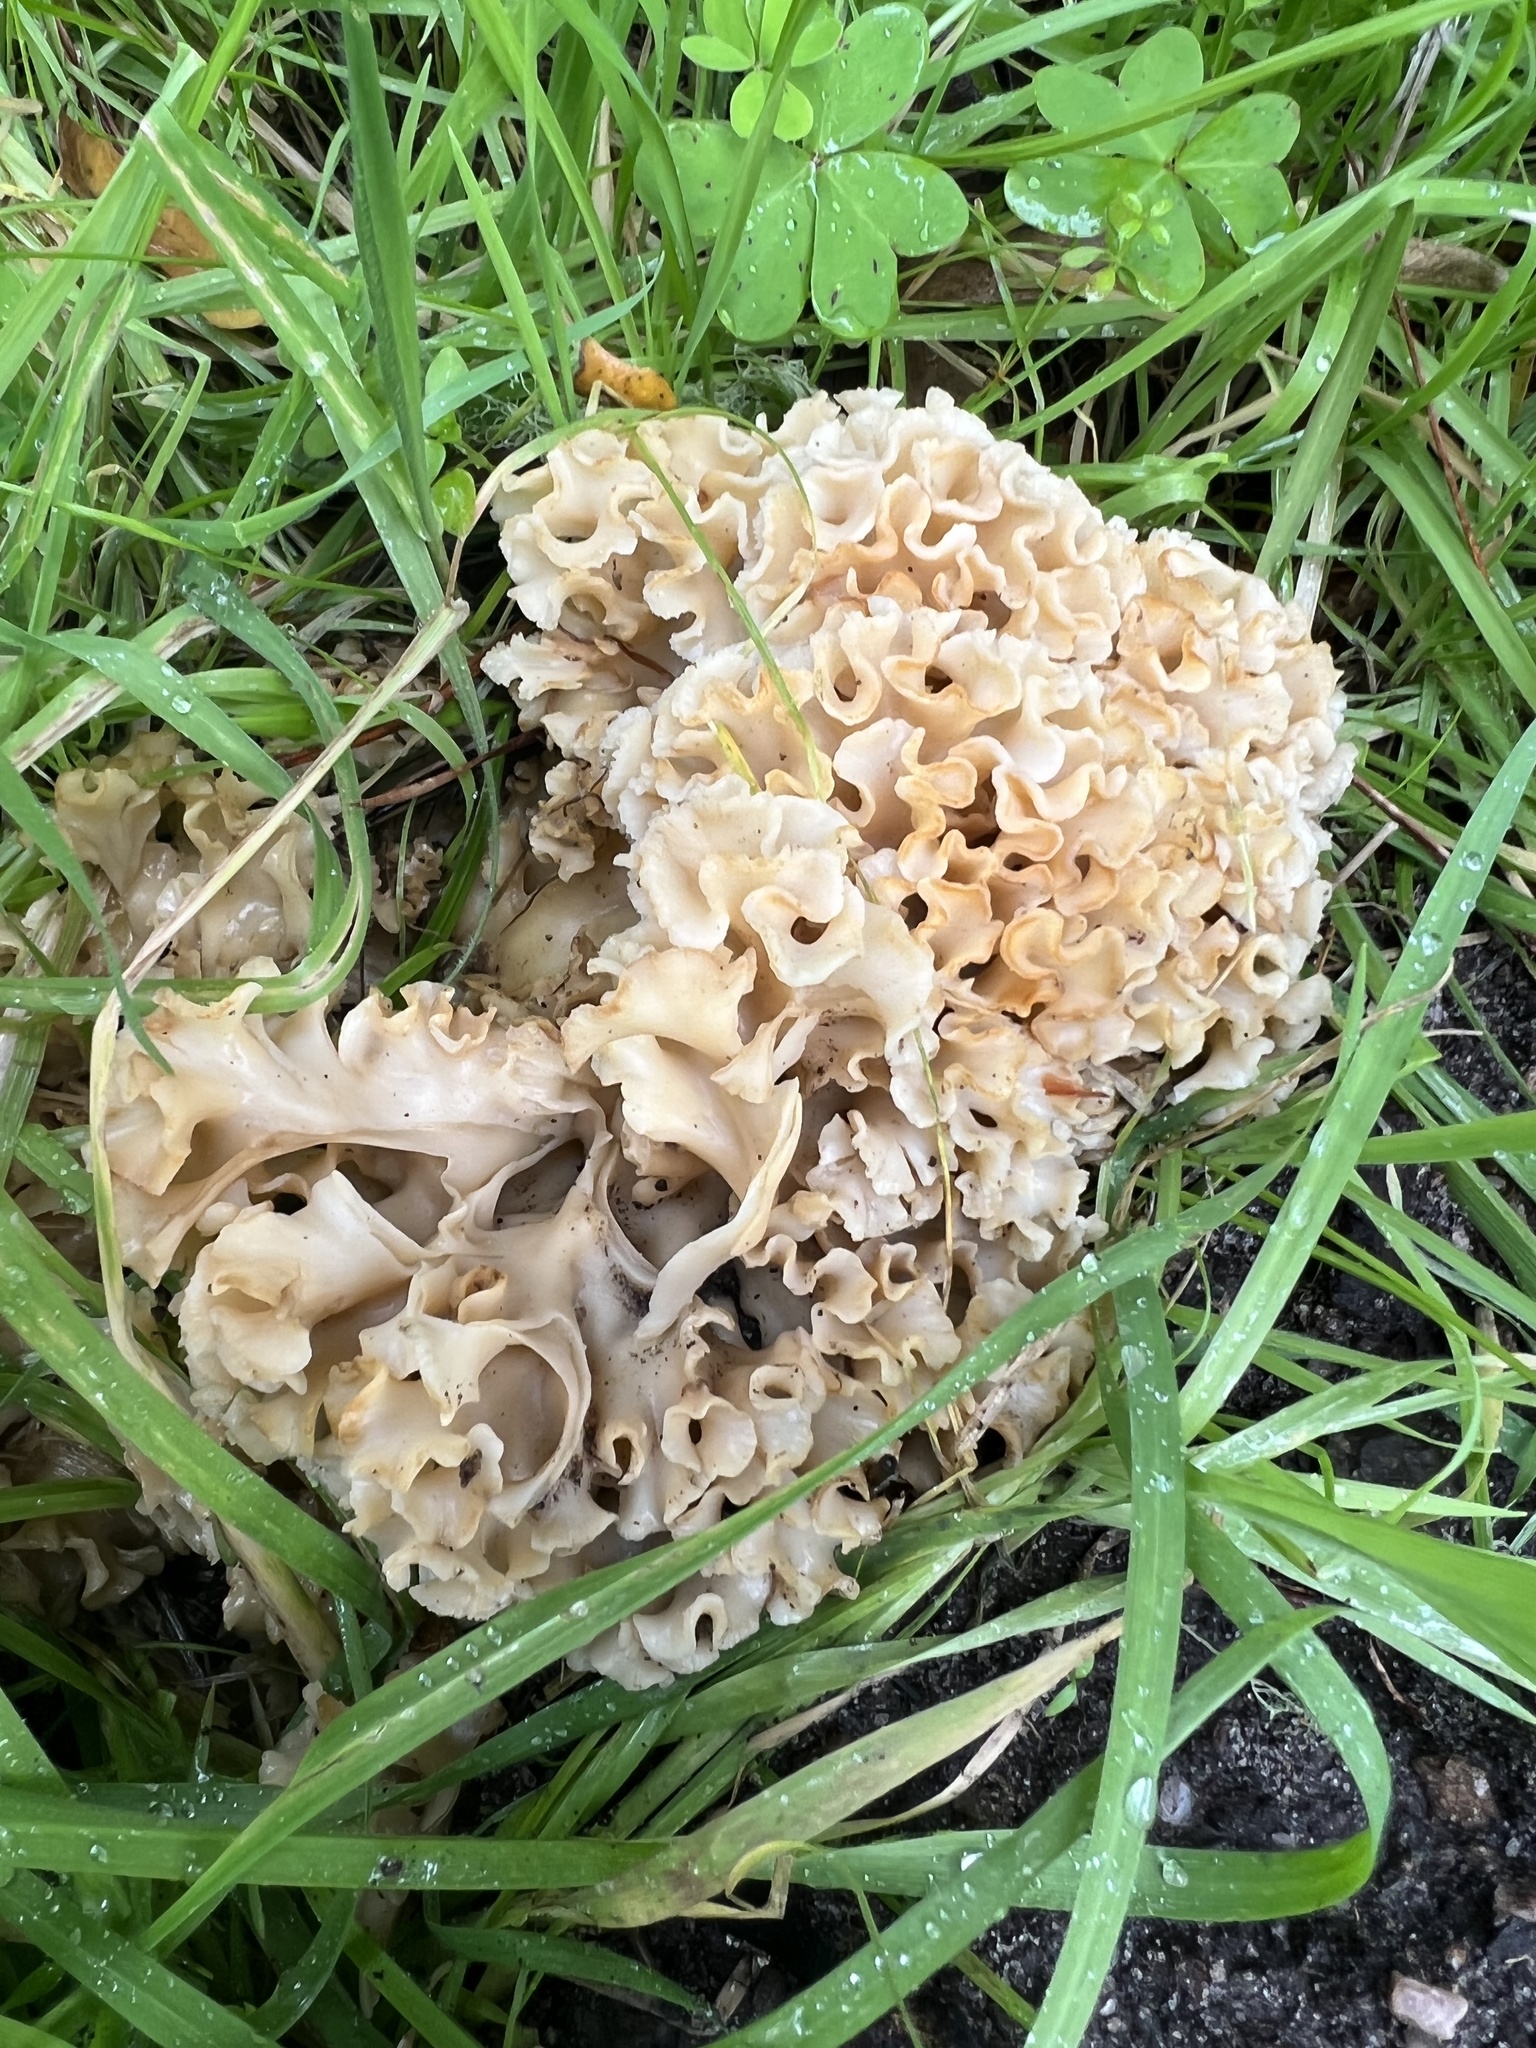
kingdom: Fungi
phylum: Basidiomycota
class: Agaricomycetes
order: Polyporales
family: Sparassidaceae
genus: Sparassis
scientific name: Sparassis radicata
